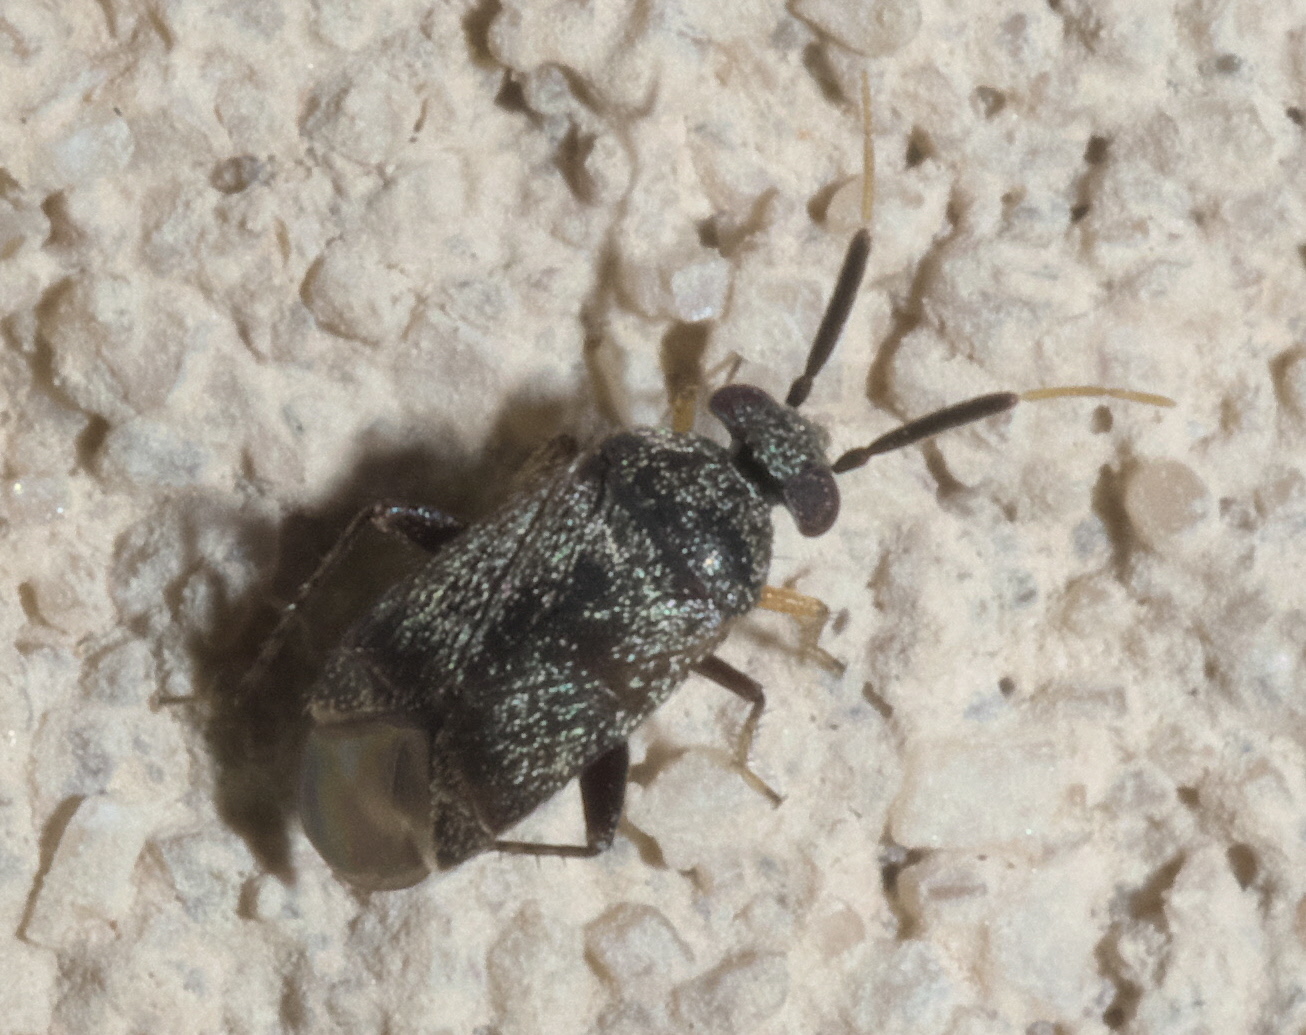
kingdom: Animalia
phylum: Arthropoda
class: Insecta
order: Hemiptera
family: Miridae
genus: Rhinacloa
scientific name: Rhinacloa forticornis
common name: Brown cotton mirid
